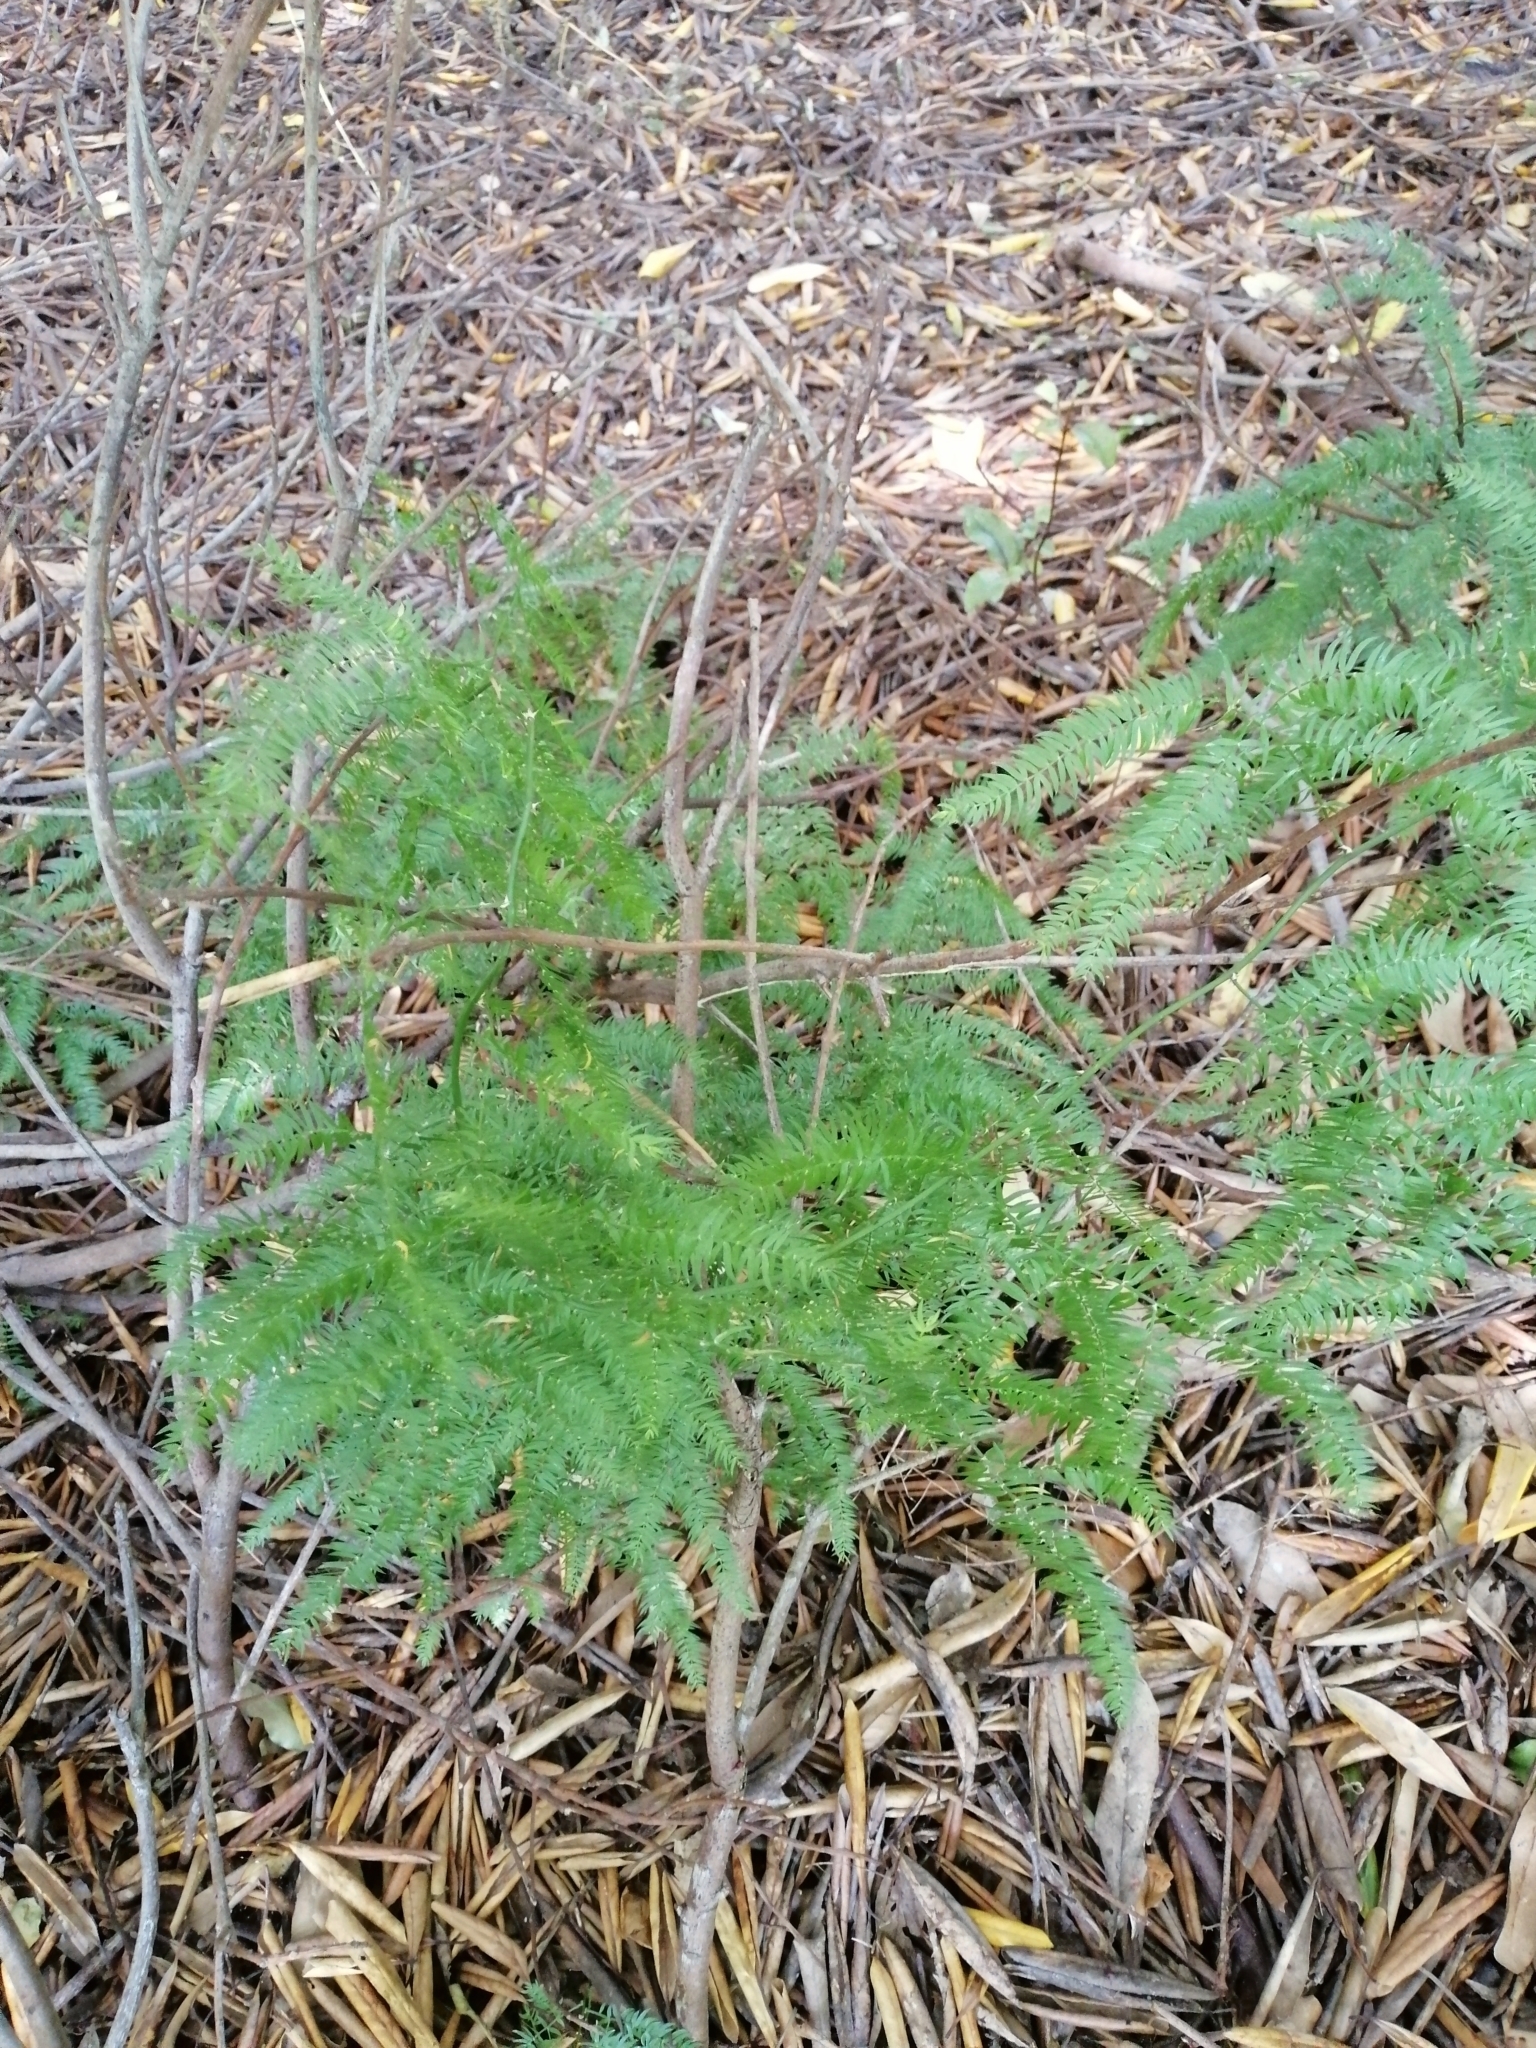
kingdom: Plantae
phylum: Tracheophyta
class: Liliopsida
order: Asparagales
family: Asparagaceae
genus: Asparagus
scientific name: Asparagus scandens
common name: Asparagus-fern
